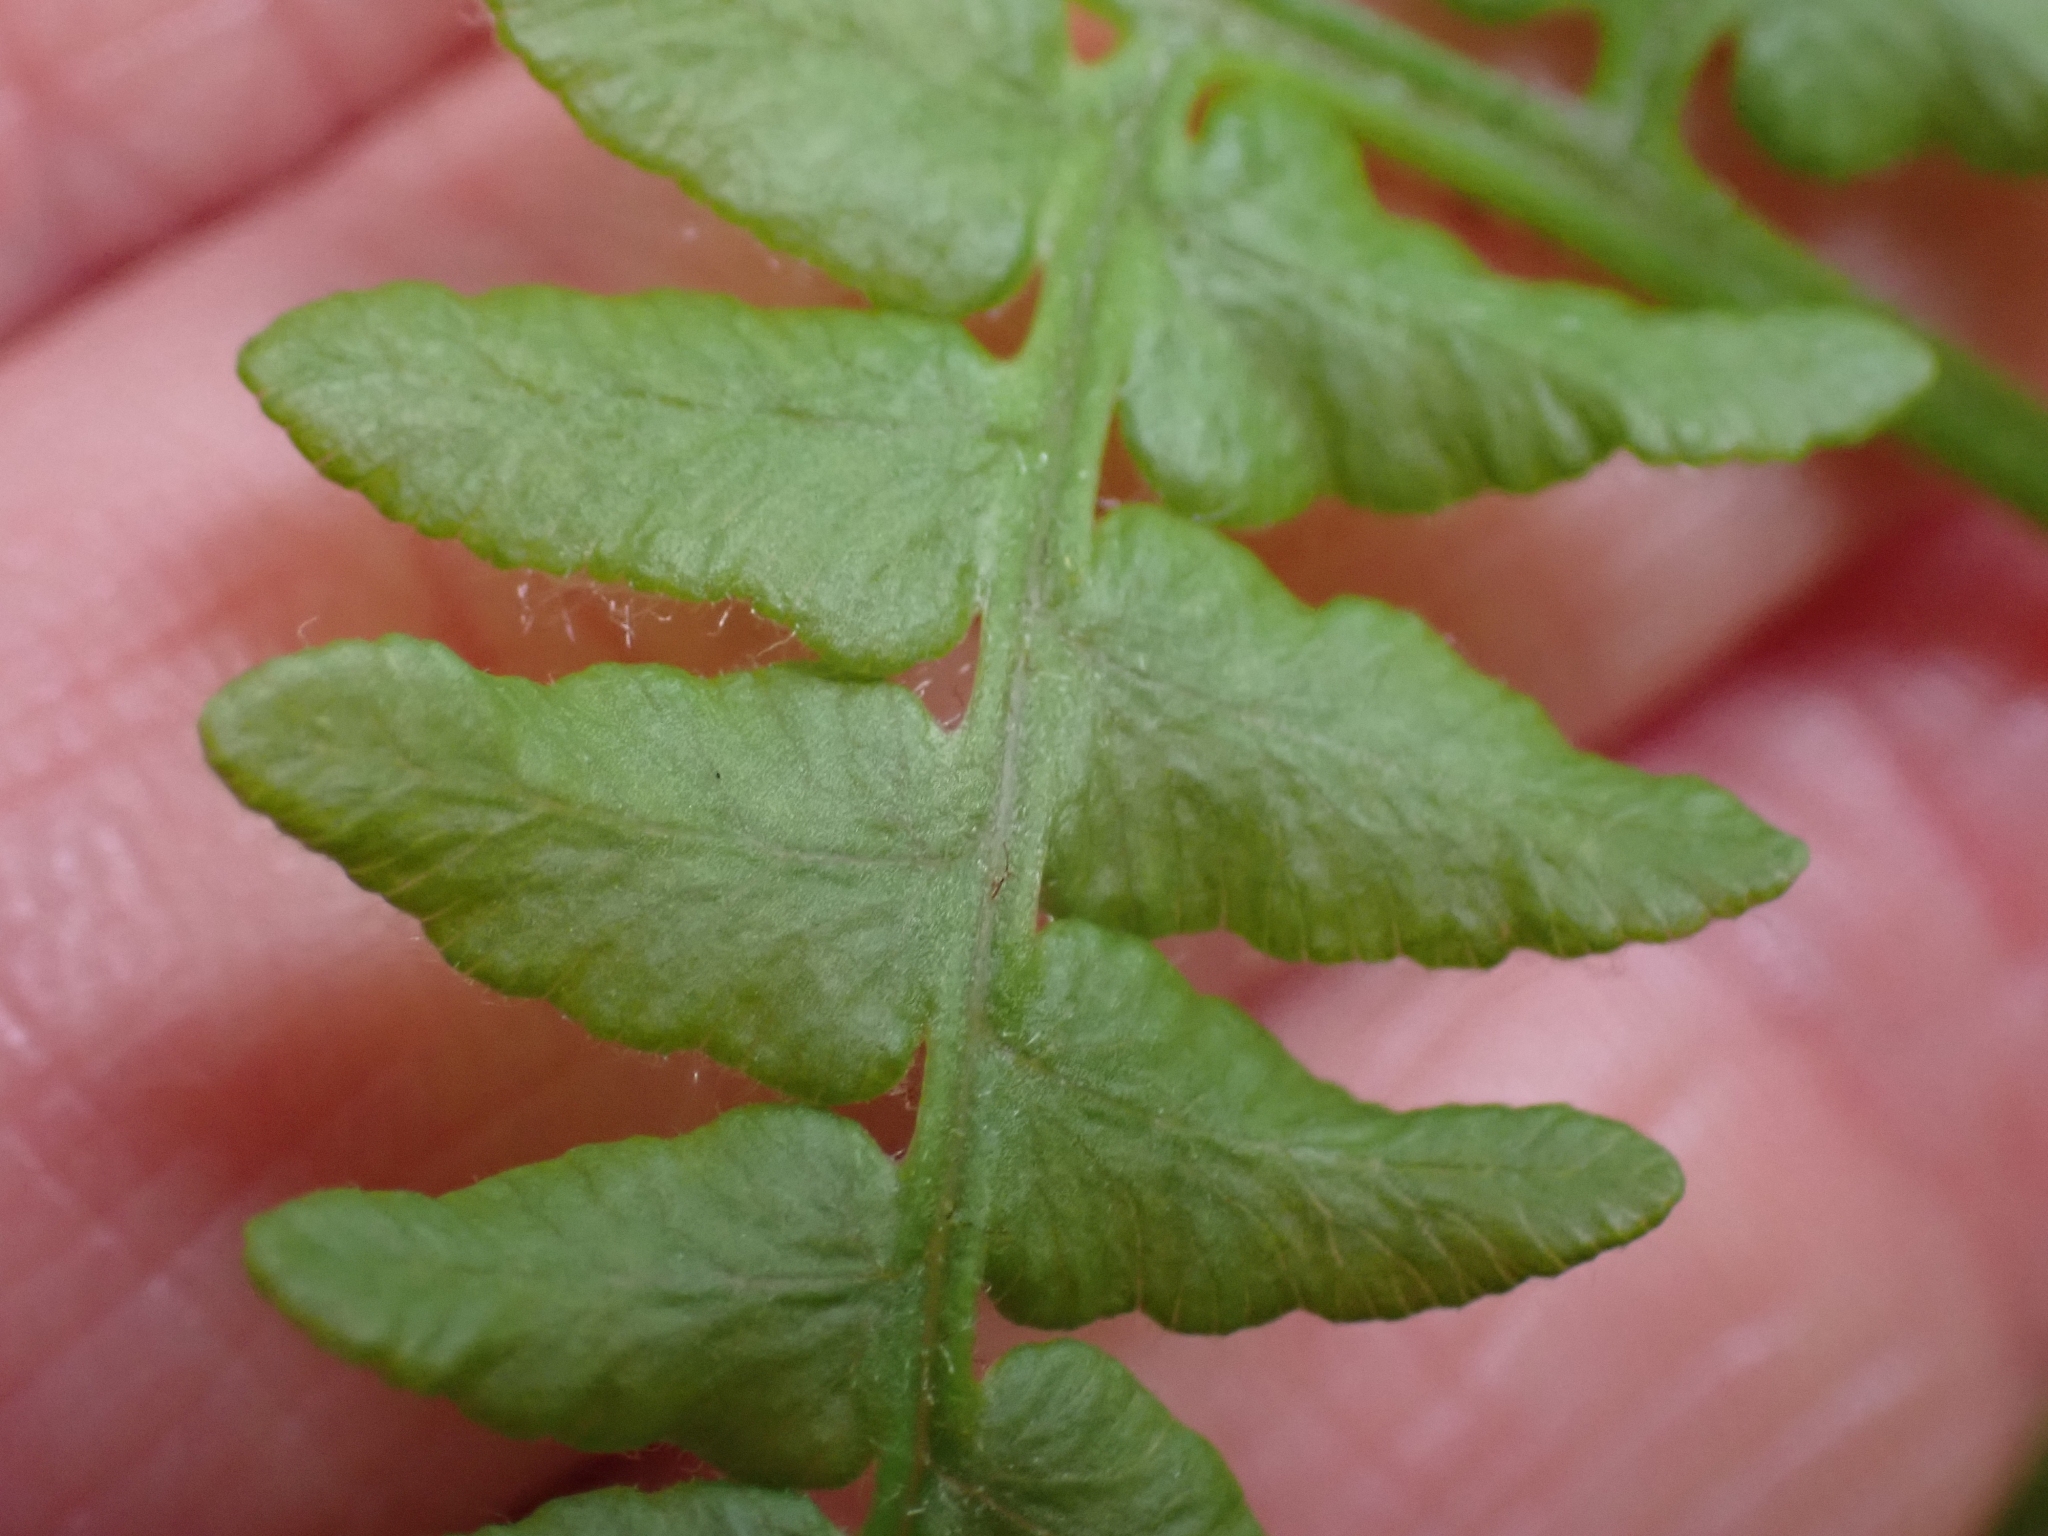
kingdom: Plantae
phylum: Tracheophyta
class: Polypodiopsida
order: Polypodiales
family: Dennstaedtiaceae
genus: Pteridium
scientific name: Pteridium aquilinum
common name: Bracken
